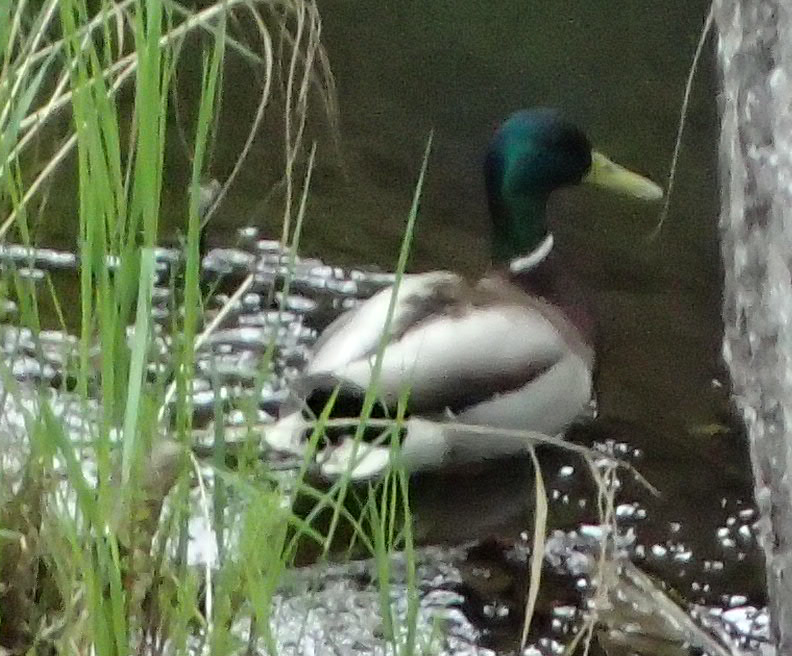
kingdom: Animalia
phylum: Chordata
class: Aves
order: Anseriformes
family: Anatidae
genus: Anas
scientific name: Anas platyrhynchos
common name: Mallard
